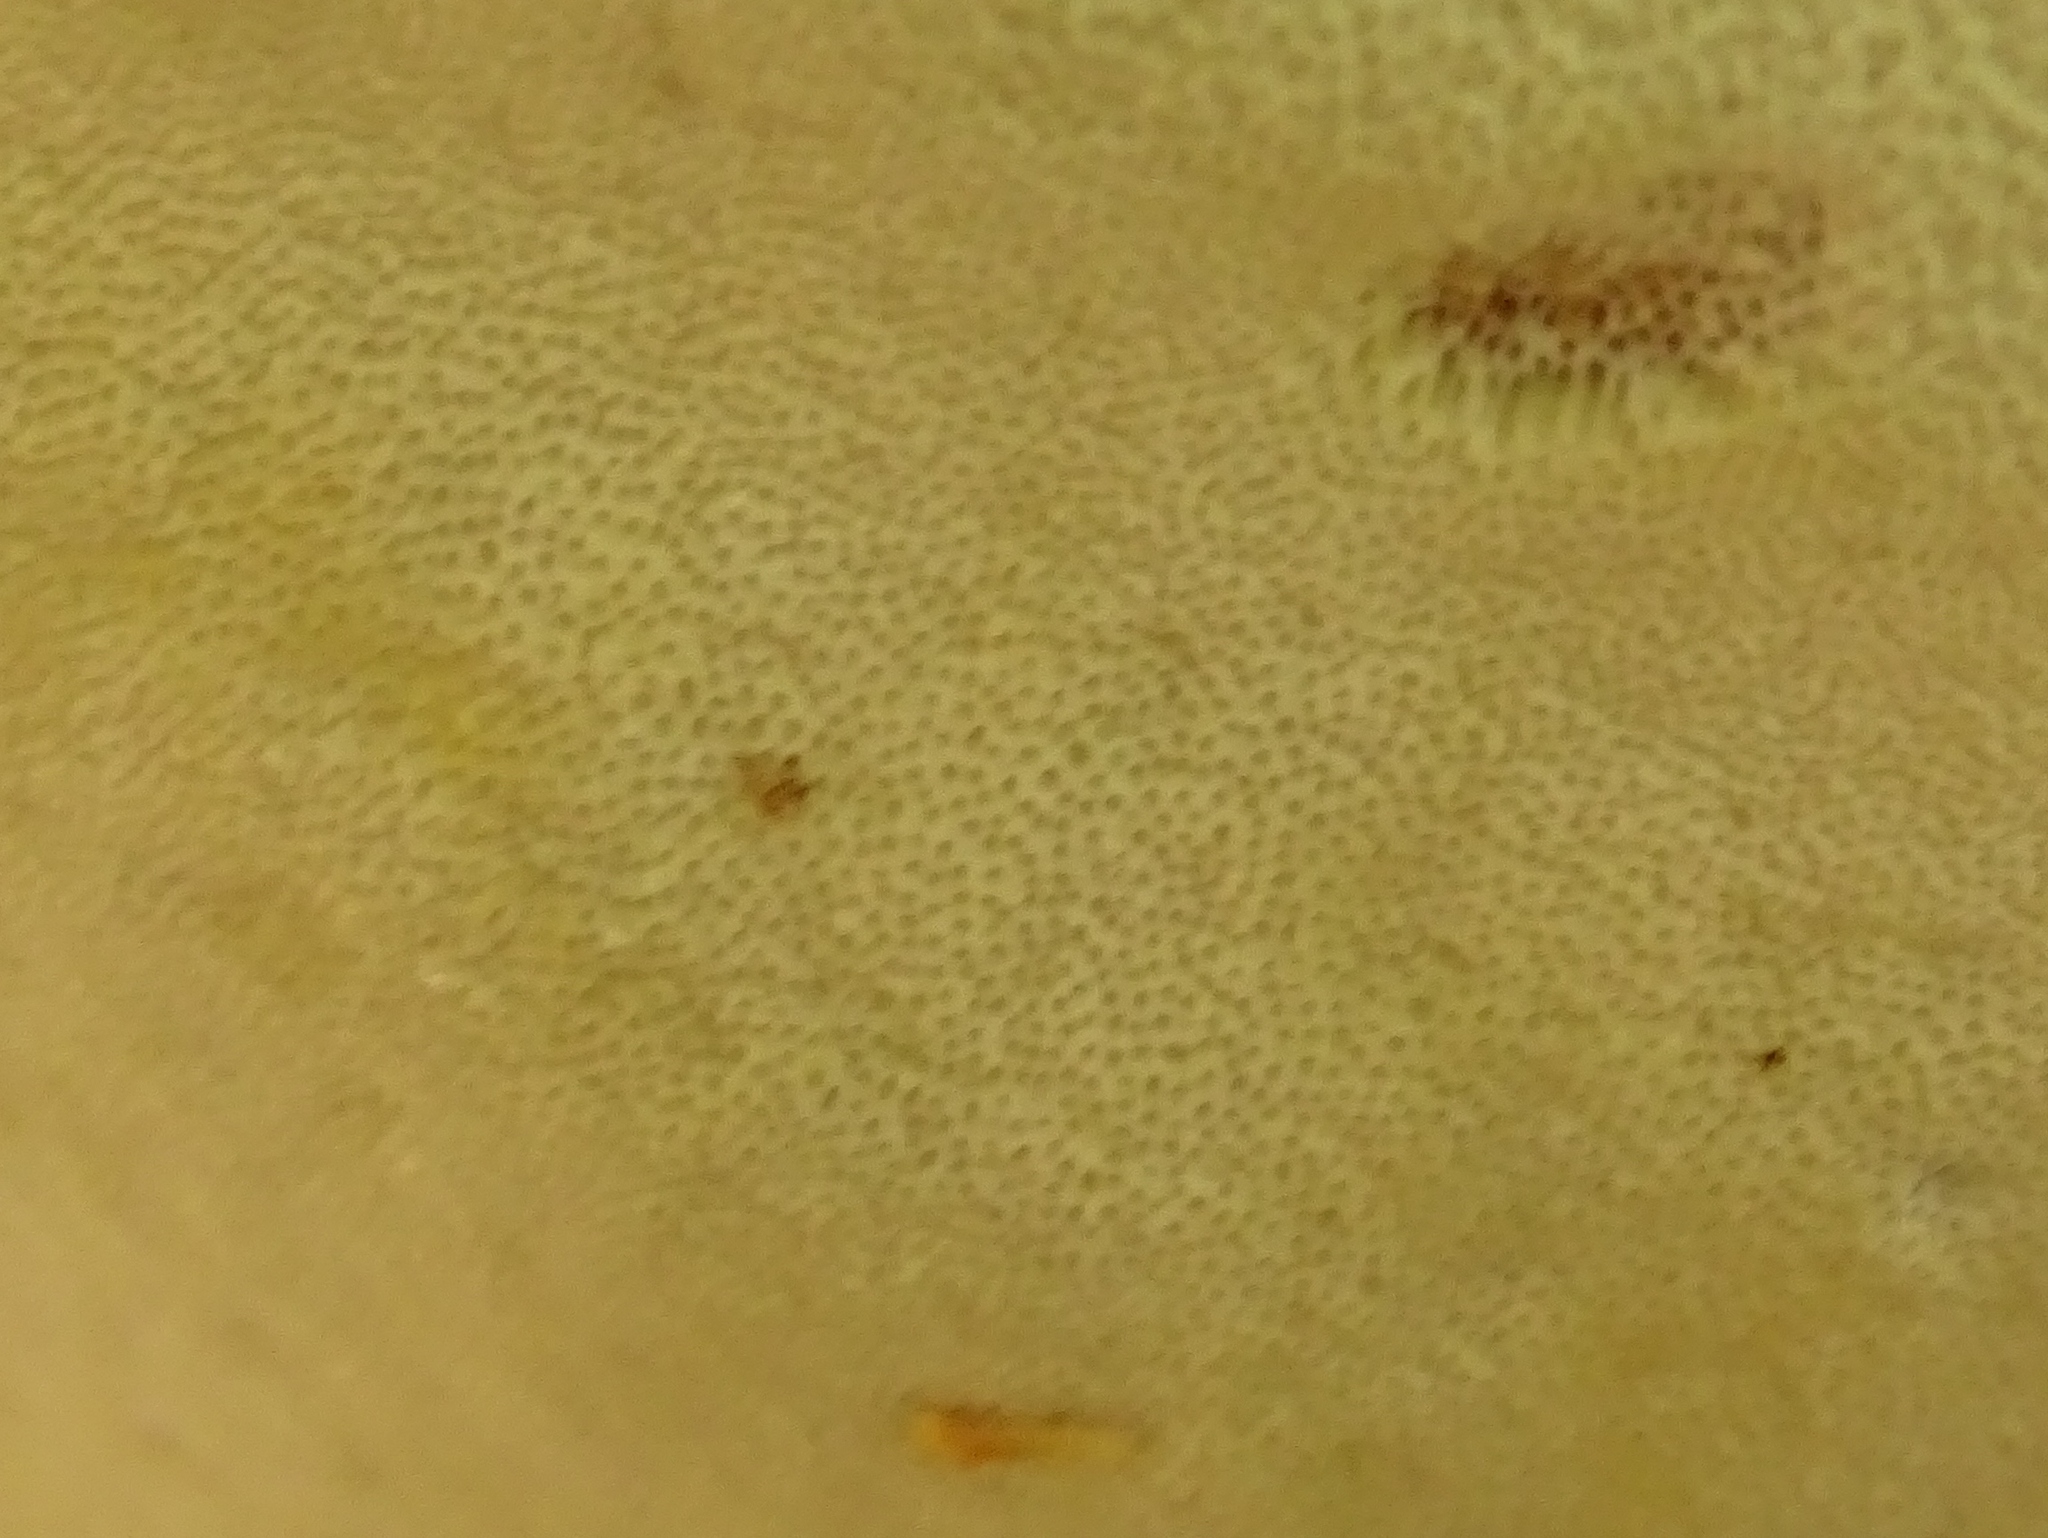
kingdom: Fungi
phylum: Basidiomycota
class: Agaricomycetes
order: Polyporales
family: Fomitopsidaceae
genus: Fomitopsis
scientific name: Fomitopsis mounceae
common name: Northern red belt
